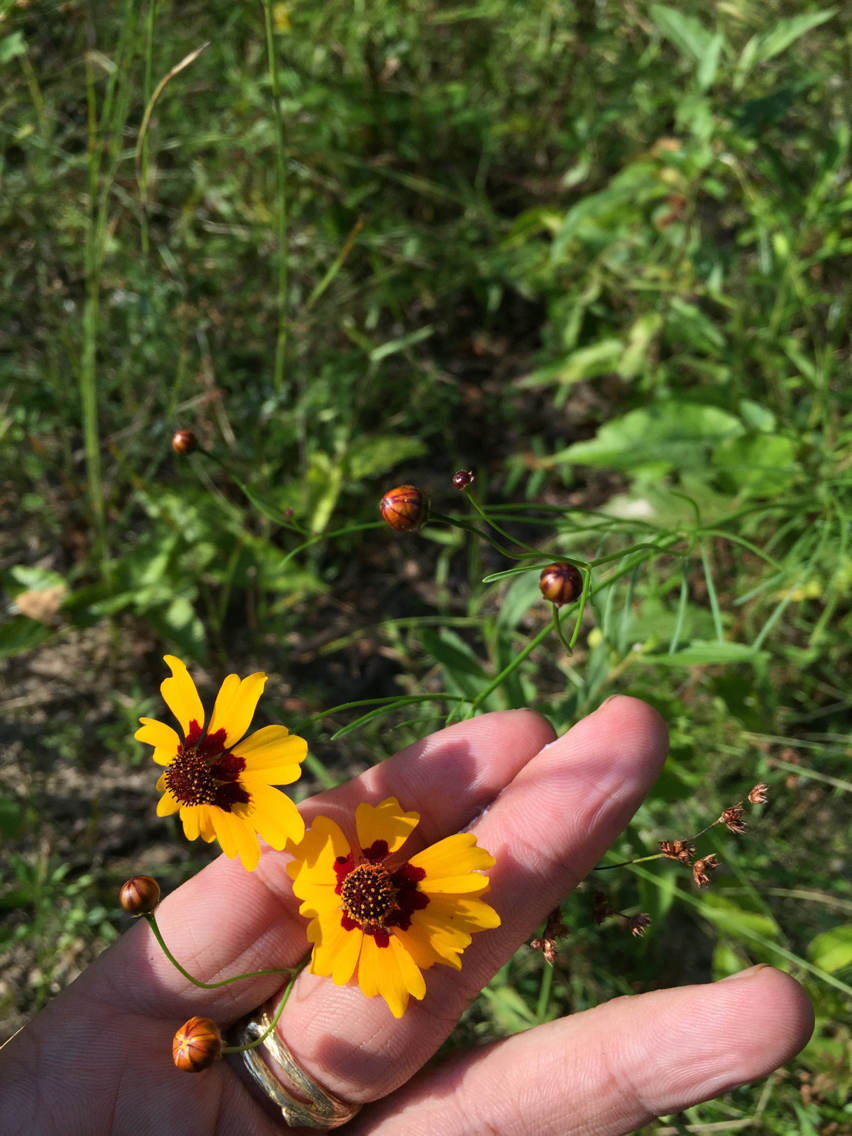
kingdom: Plantae
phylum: Tracheophyta
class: Magnoliopsida
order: Asterales
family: Asteraceae
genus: Coreopsis
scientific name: Coreopsis tinctoria
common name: Garden tickseed
